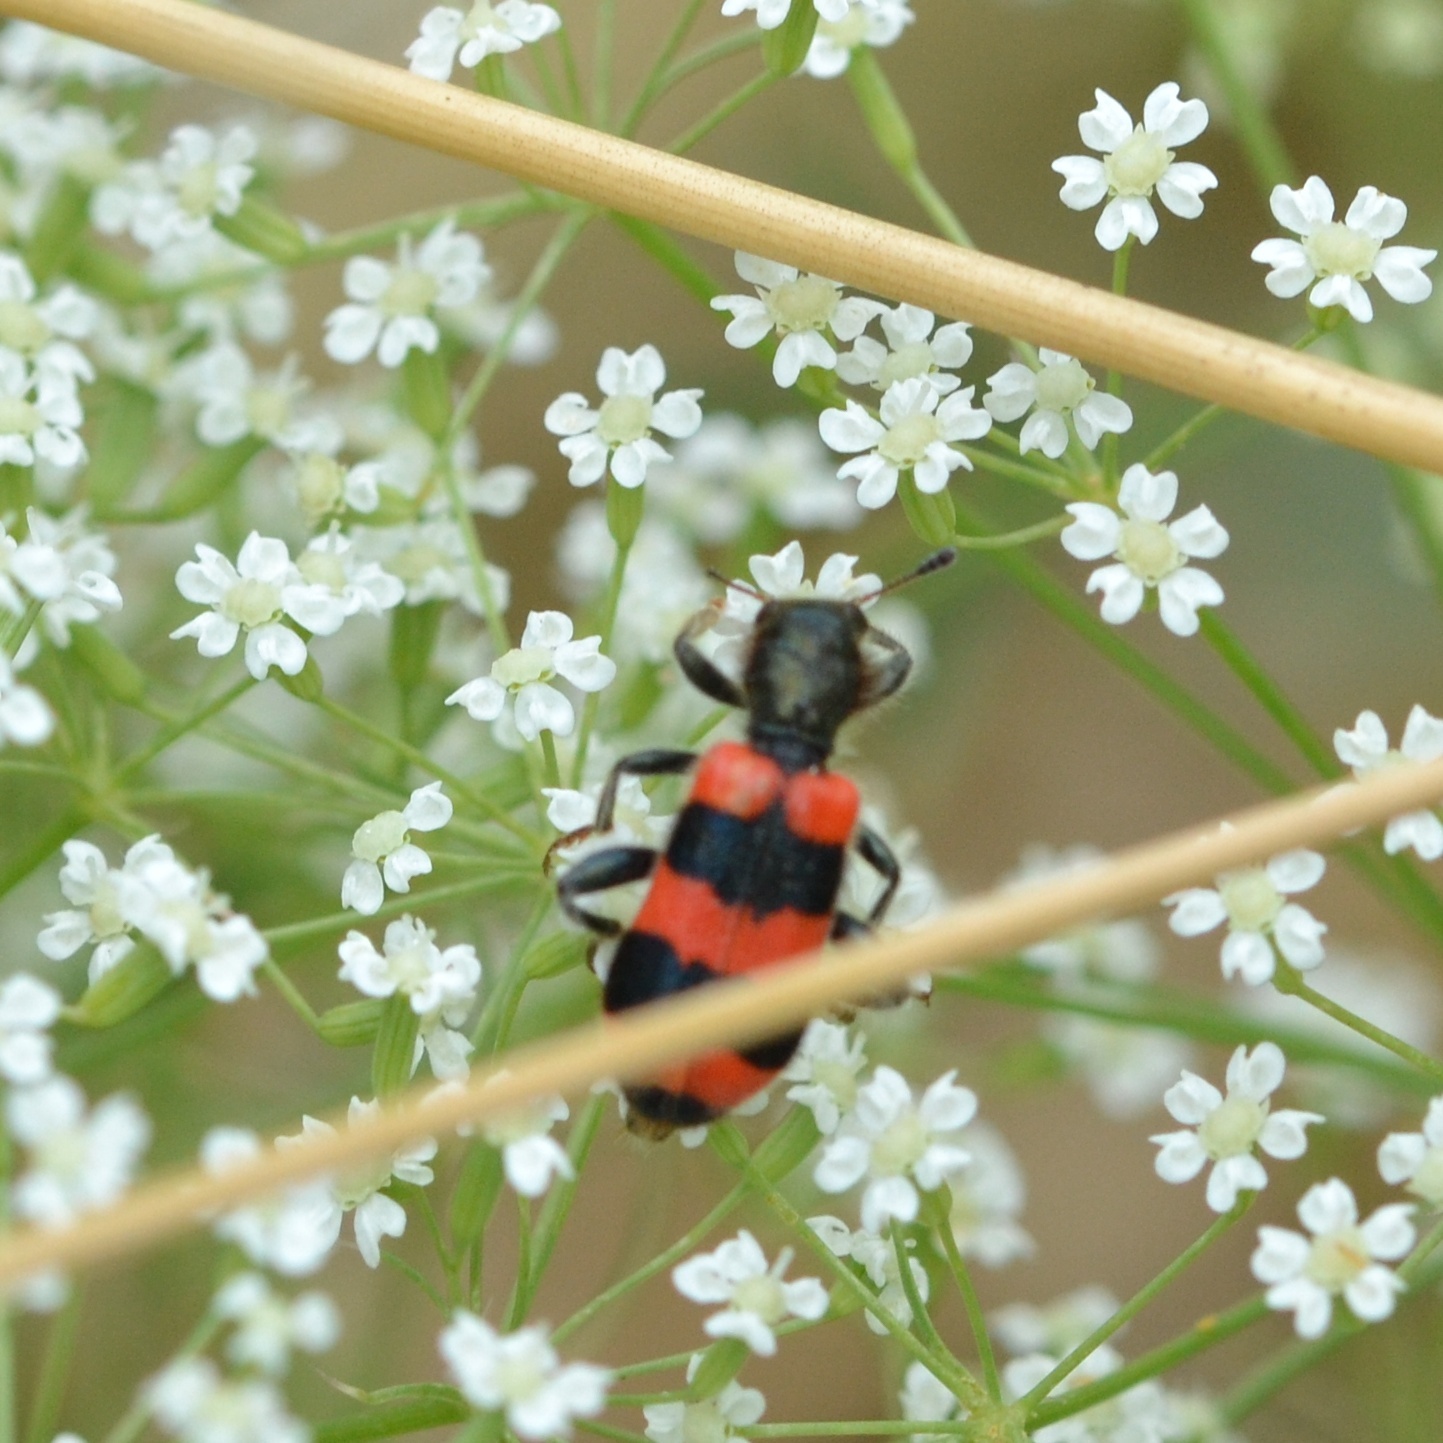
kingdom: Animalia
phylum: Arthropoda
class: Insecta
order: Coleoptera
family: Cleridae
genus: Trichodes
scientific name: Trichodes apiarius
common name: Bee-eating beetle
